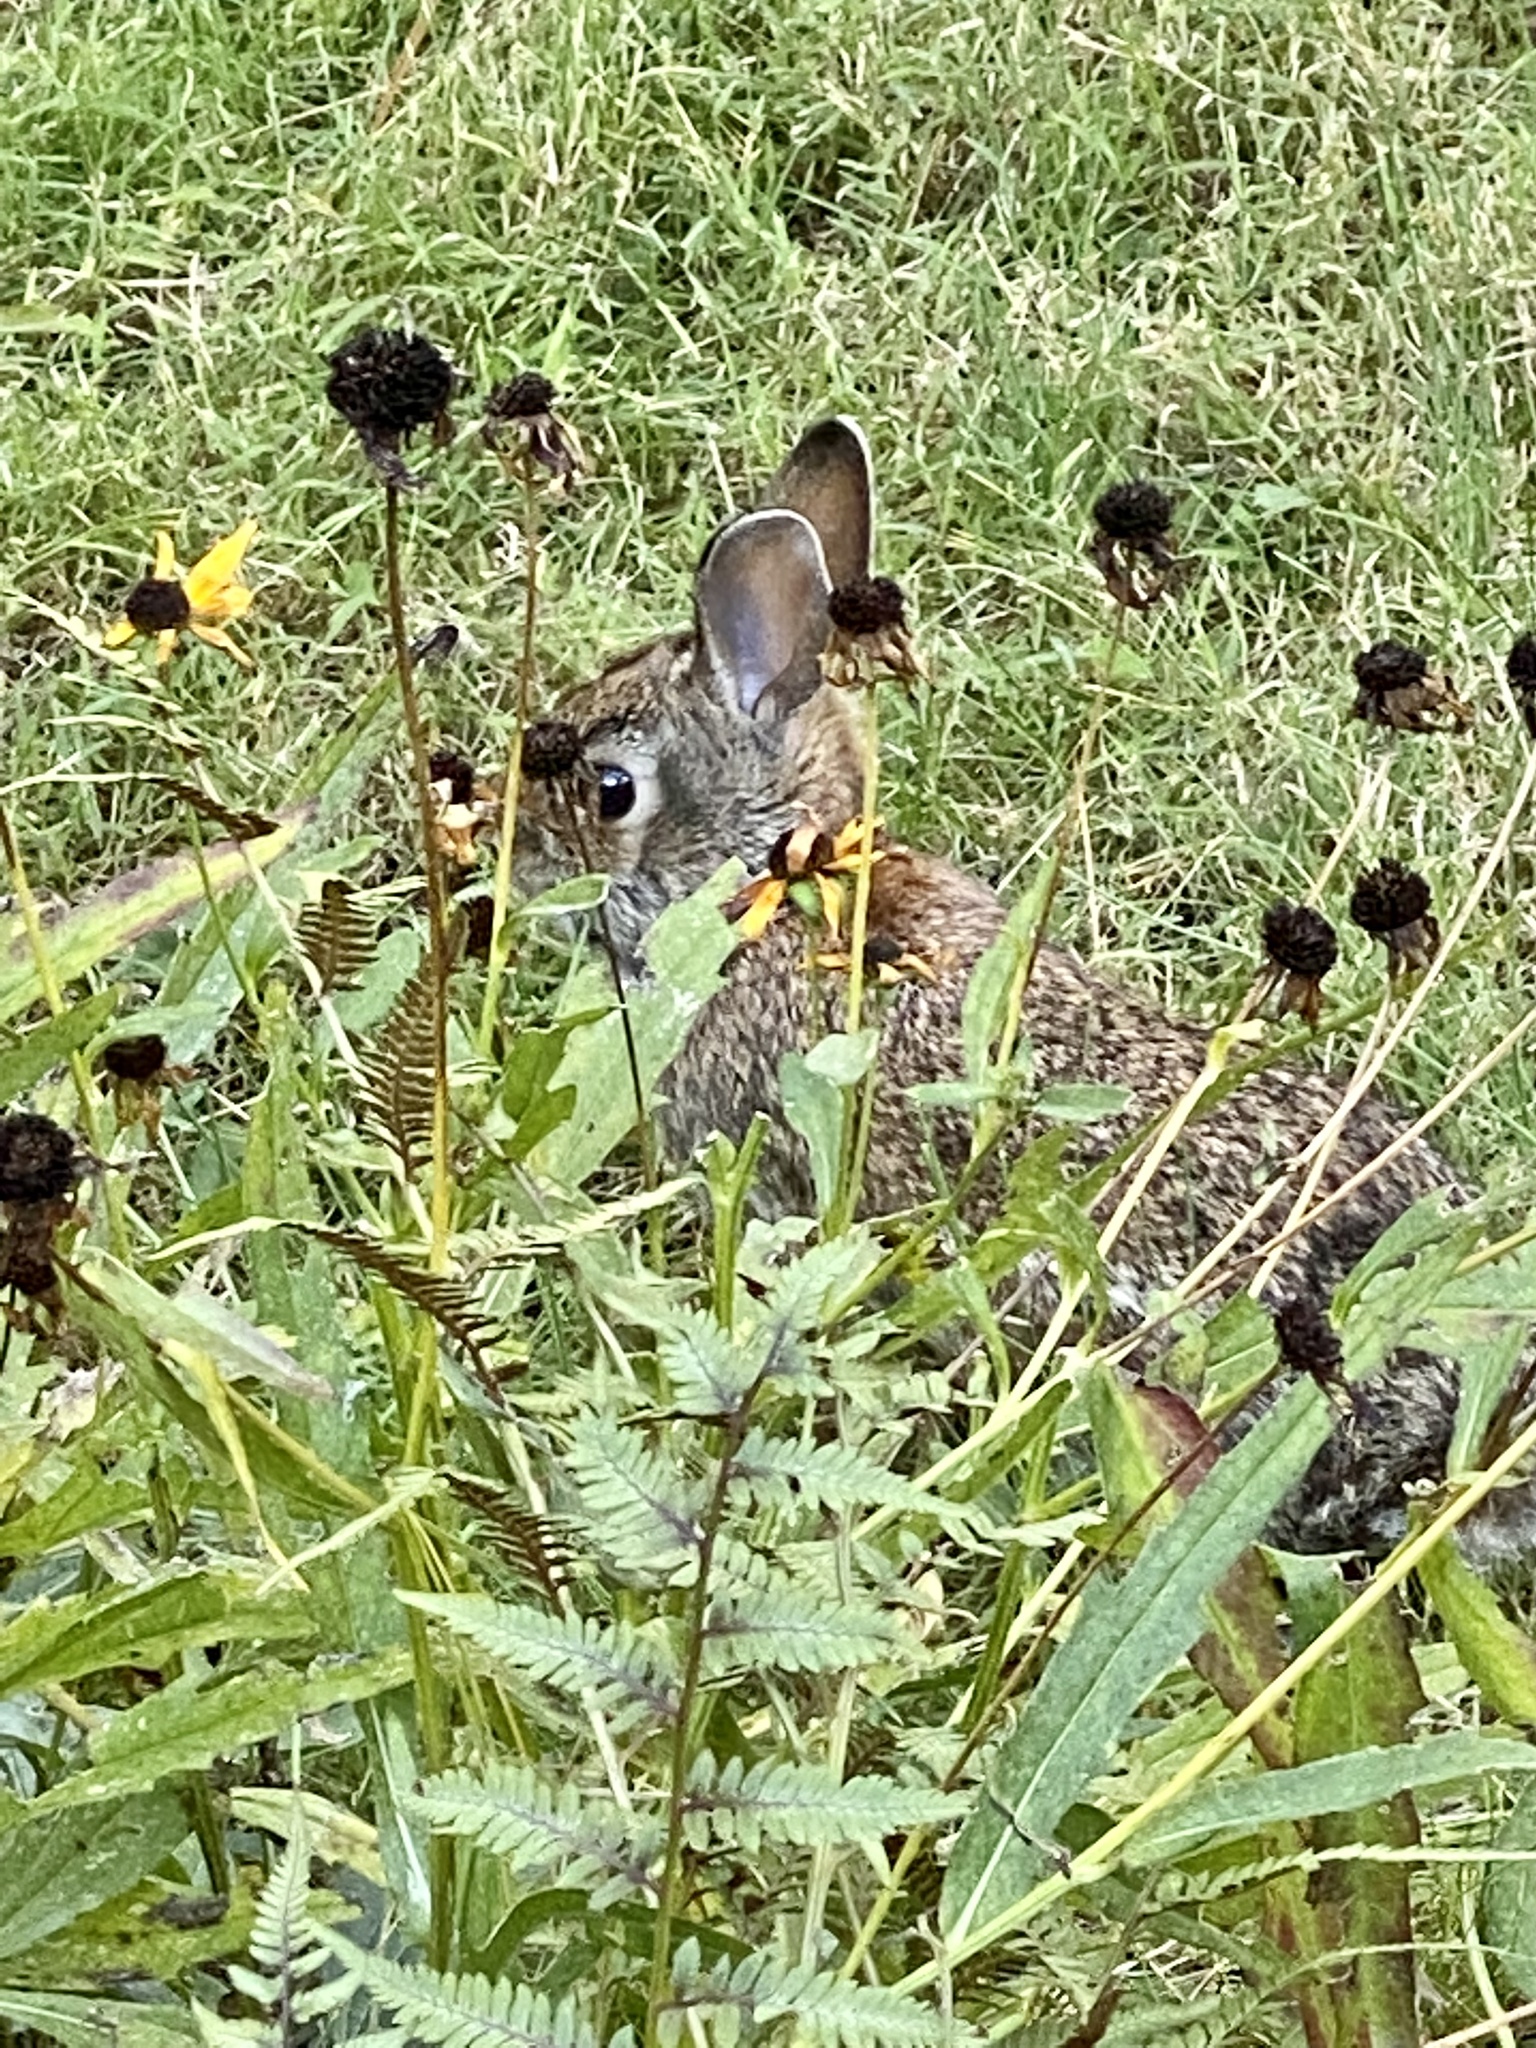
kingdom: Animalia
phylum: Chordata
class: Mammalia
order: Lagomorpha
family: Leporidae
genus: Sylvilagus
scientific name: Sylvilagus floridanus
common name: Eastern cottontail
